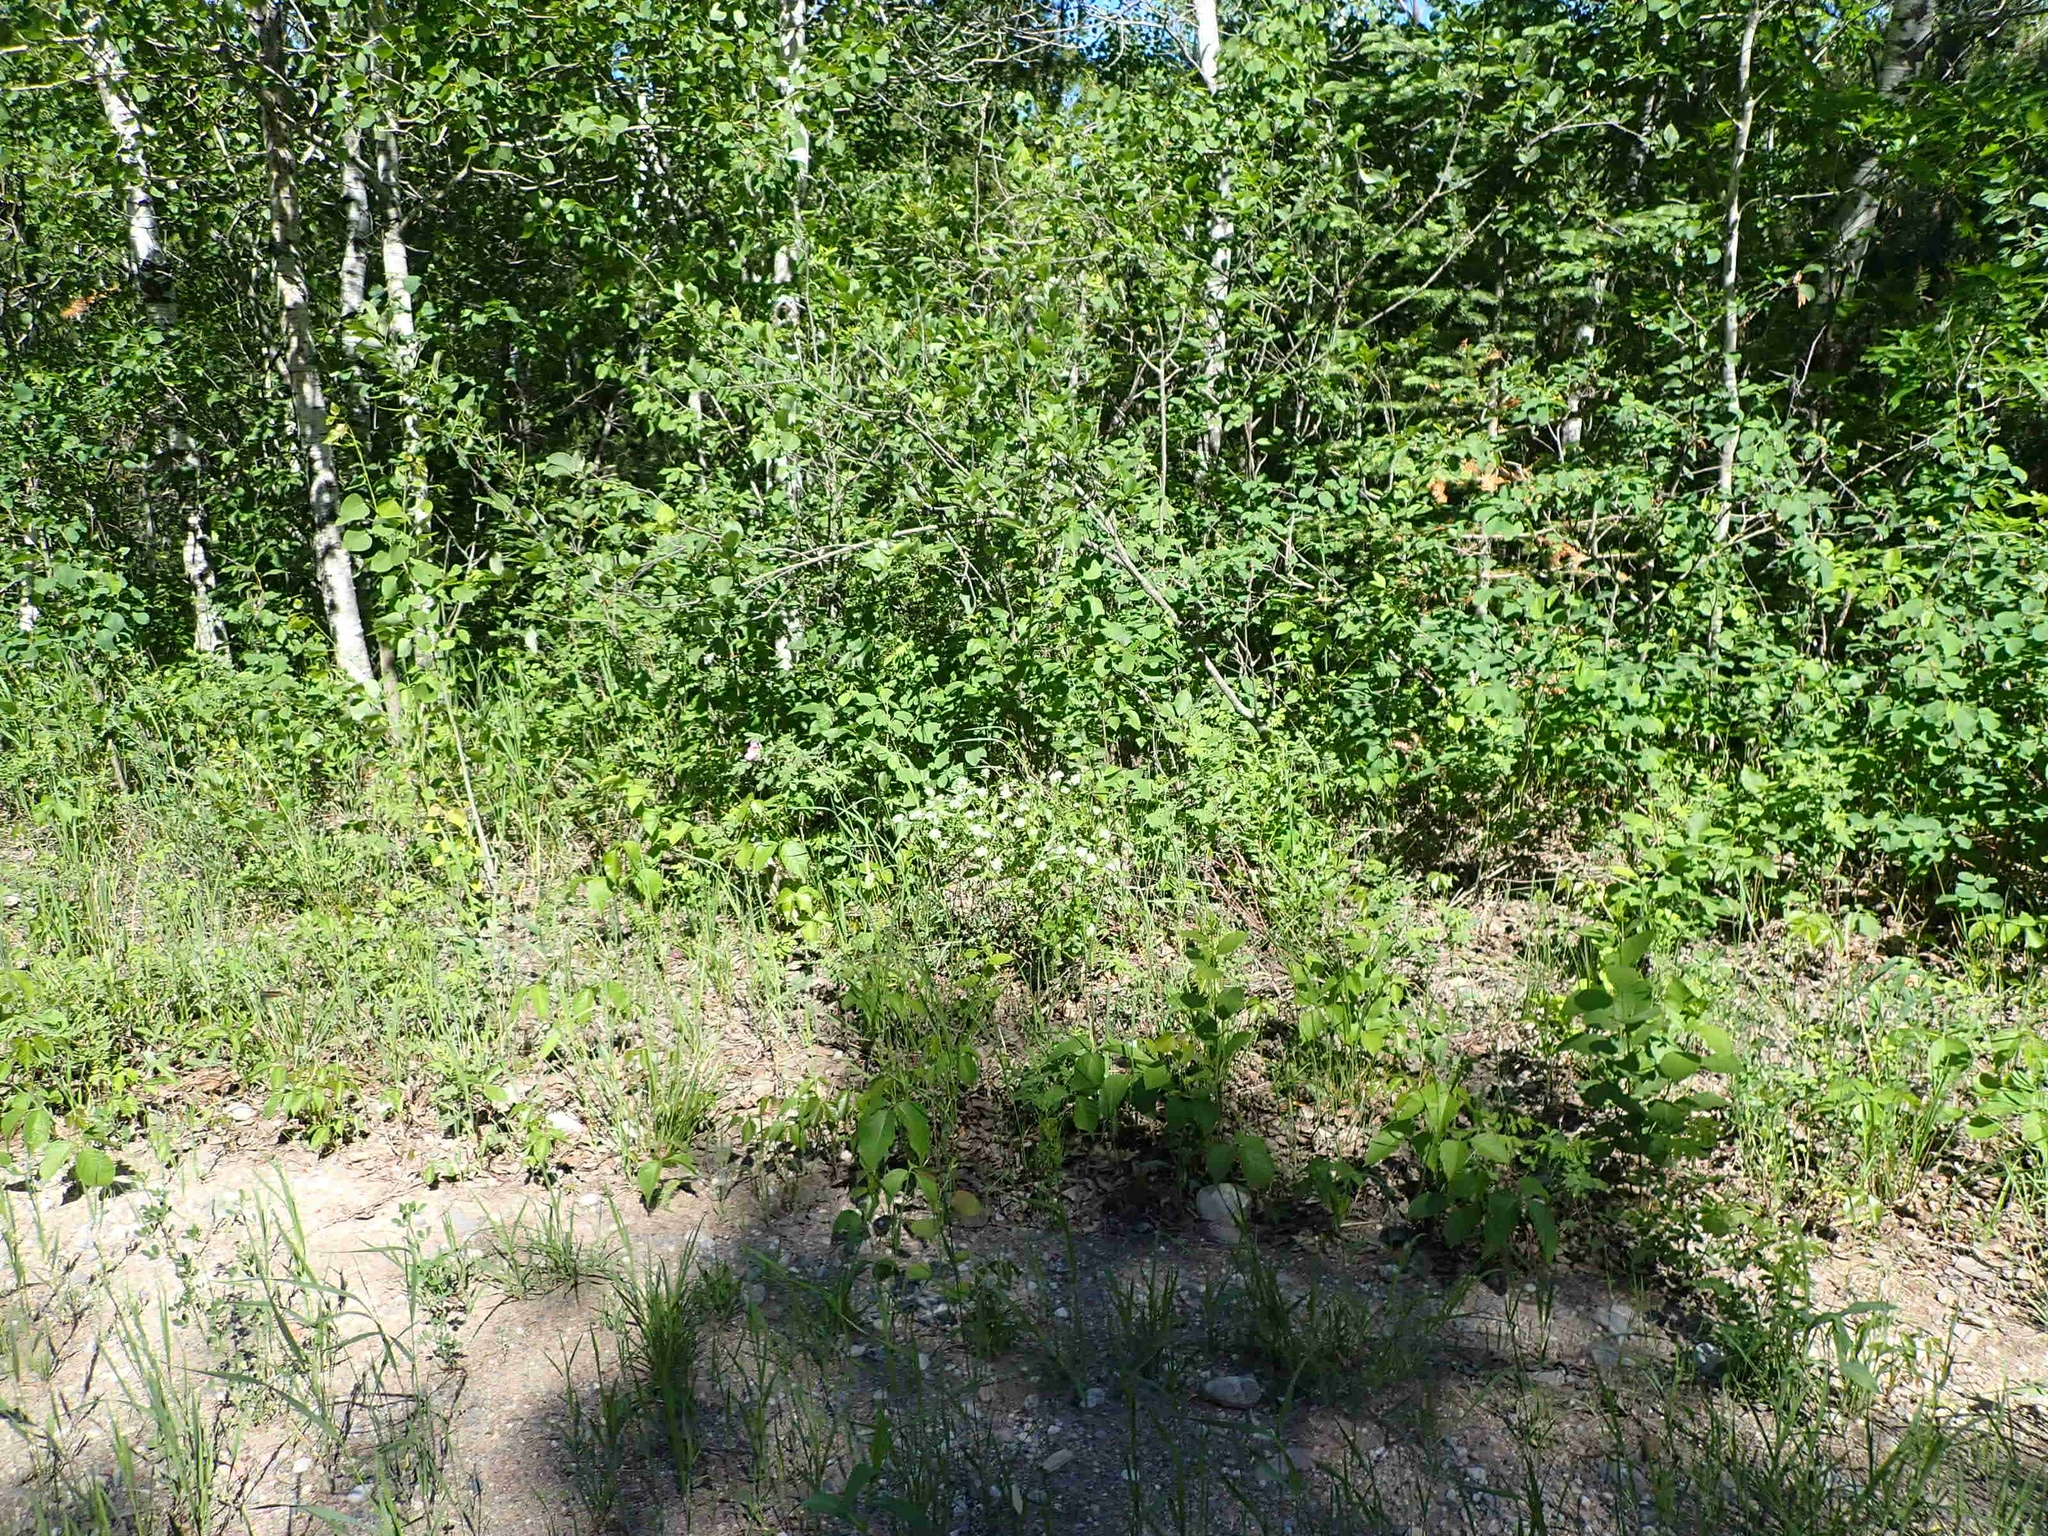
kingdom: Plantae
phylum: Tracheophyta
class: Magnoliopsida
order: Rosales
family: Rhamnaceae
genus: Ceanothus
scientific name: Ceanothus herbaceus
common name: Inland ceanothus
